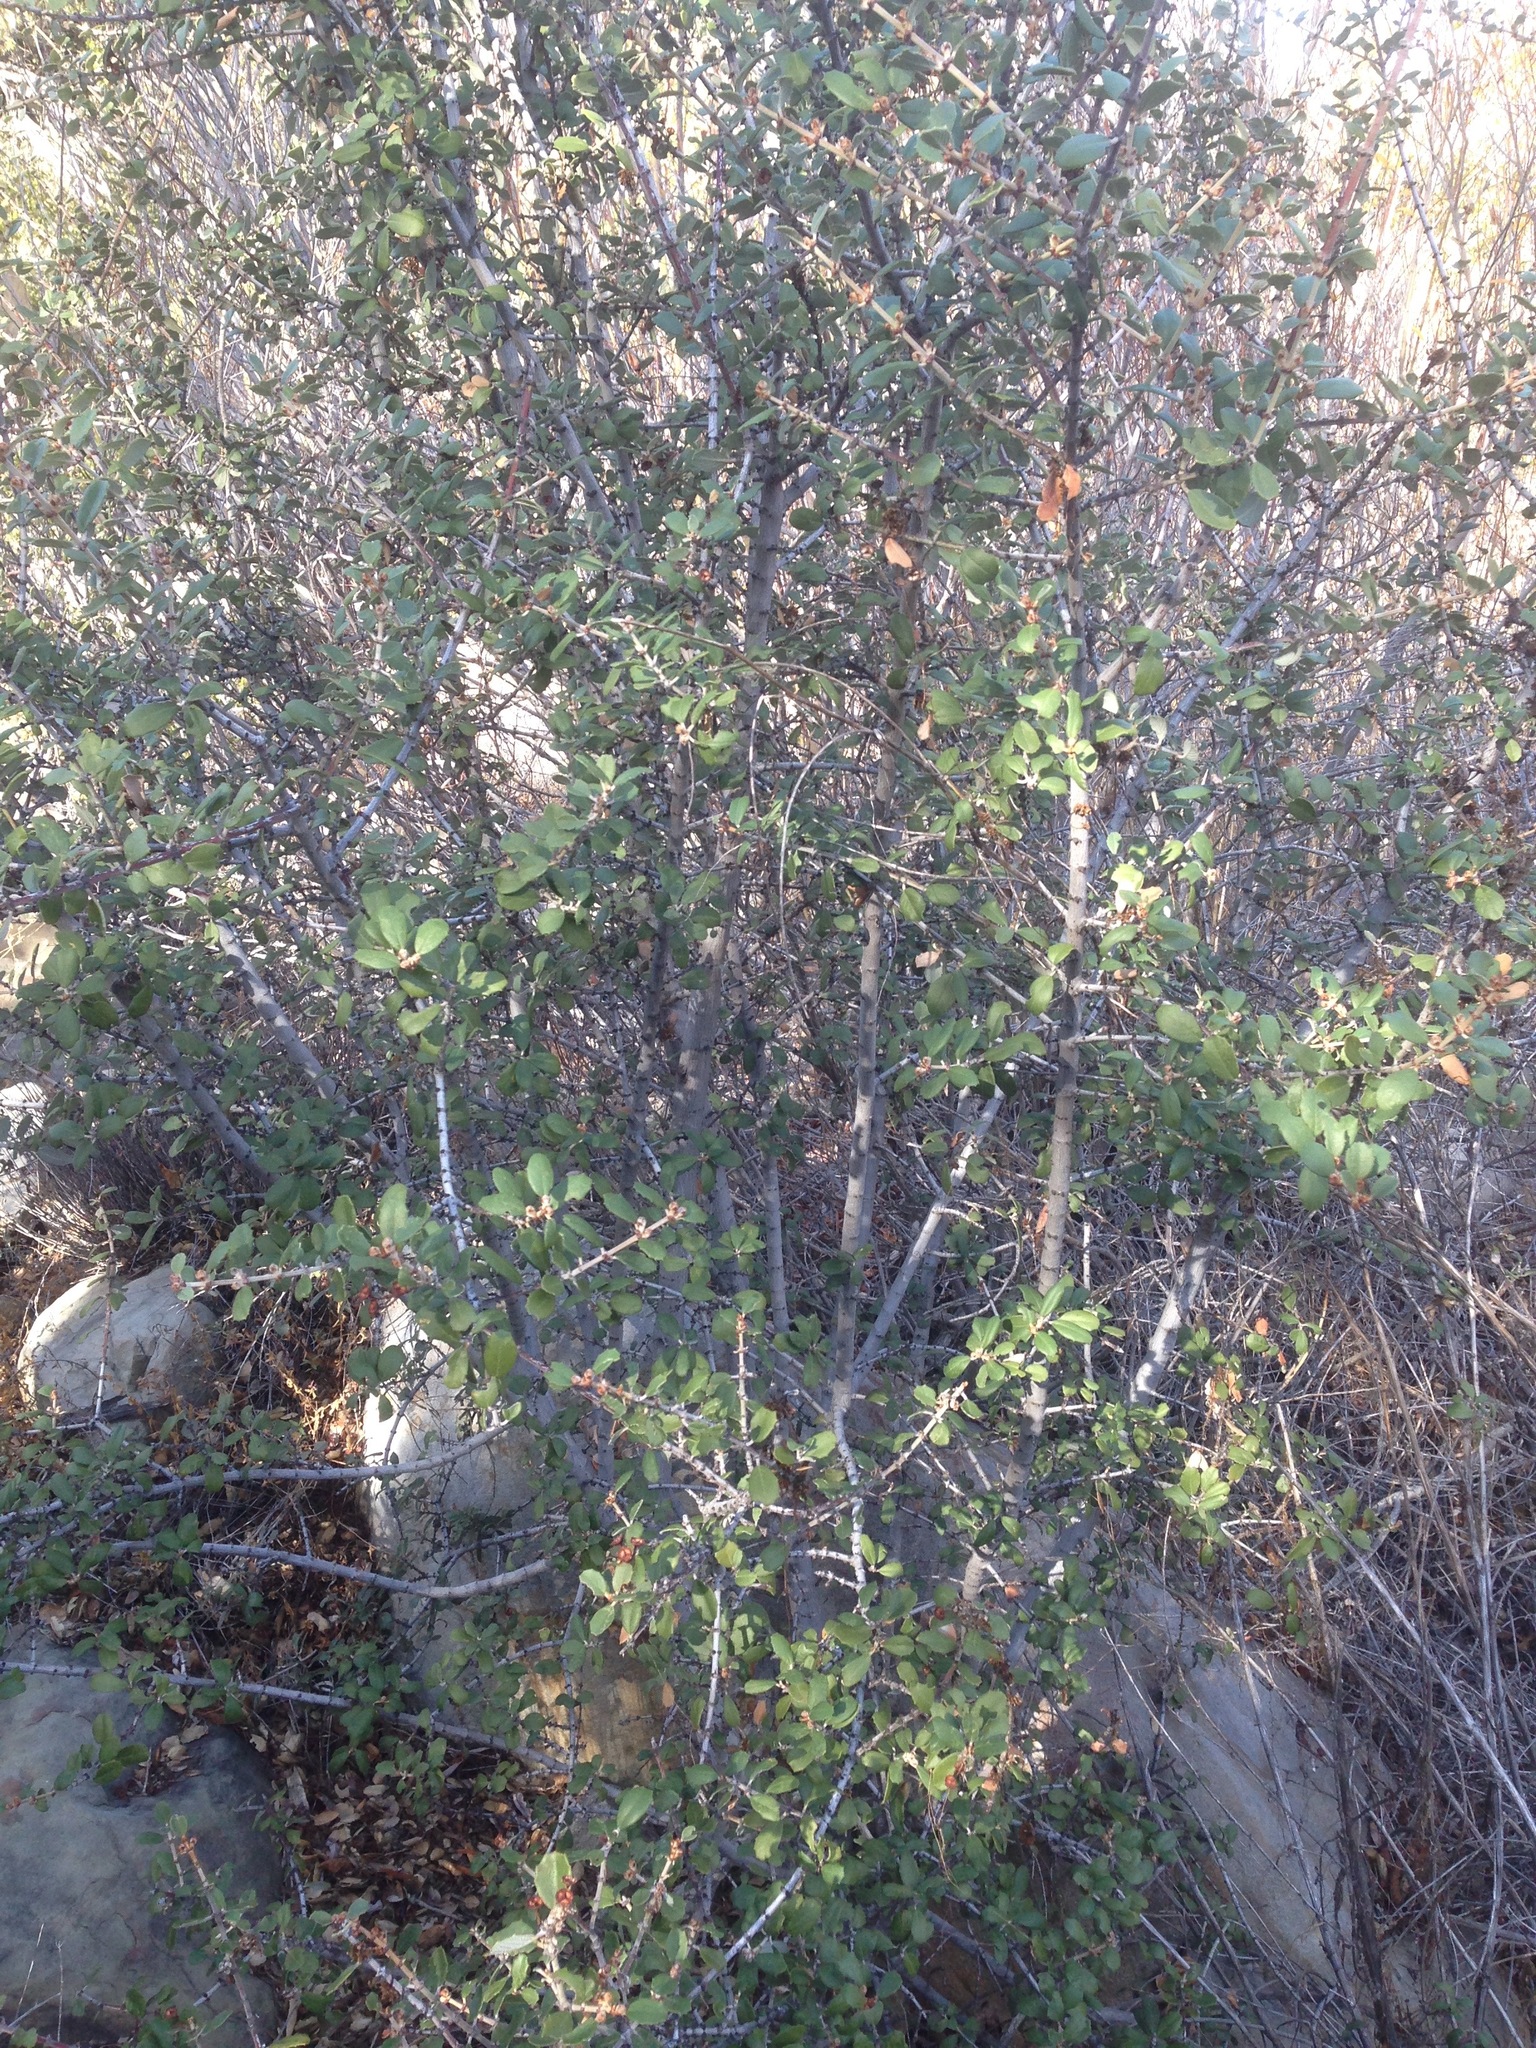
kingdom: Plantae
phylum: Tracheophyta
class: Magnoliopsida
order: Rosales
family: Rhamnaceae
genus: Ceanothus
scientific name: Ceanothus crassifolius
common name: Hoaryleaf ceanothus
